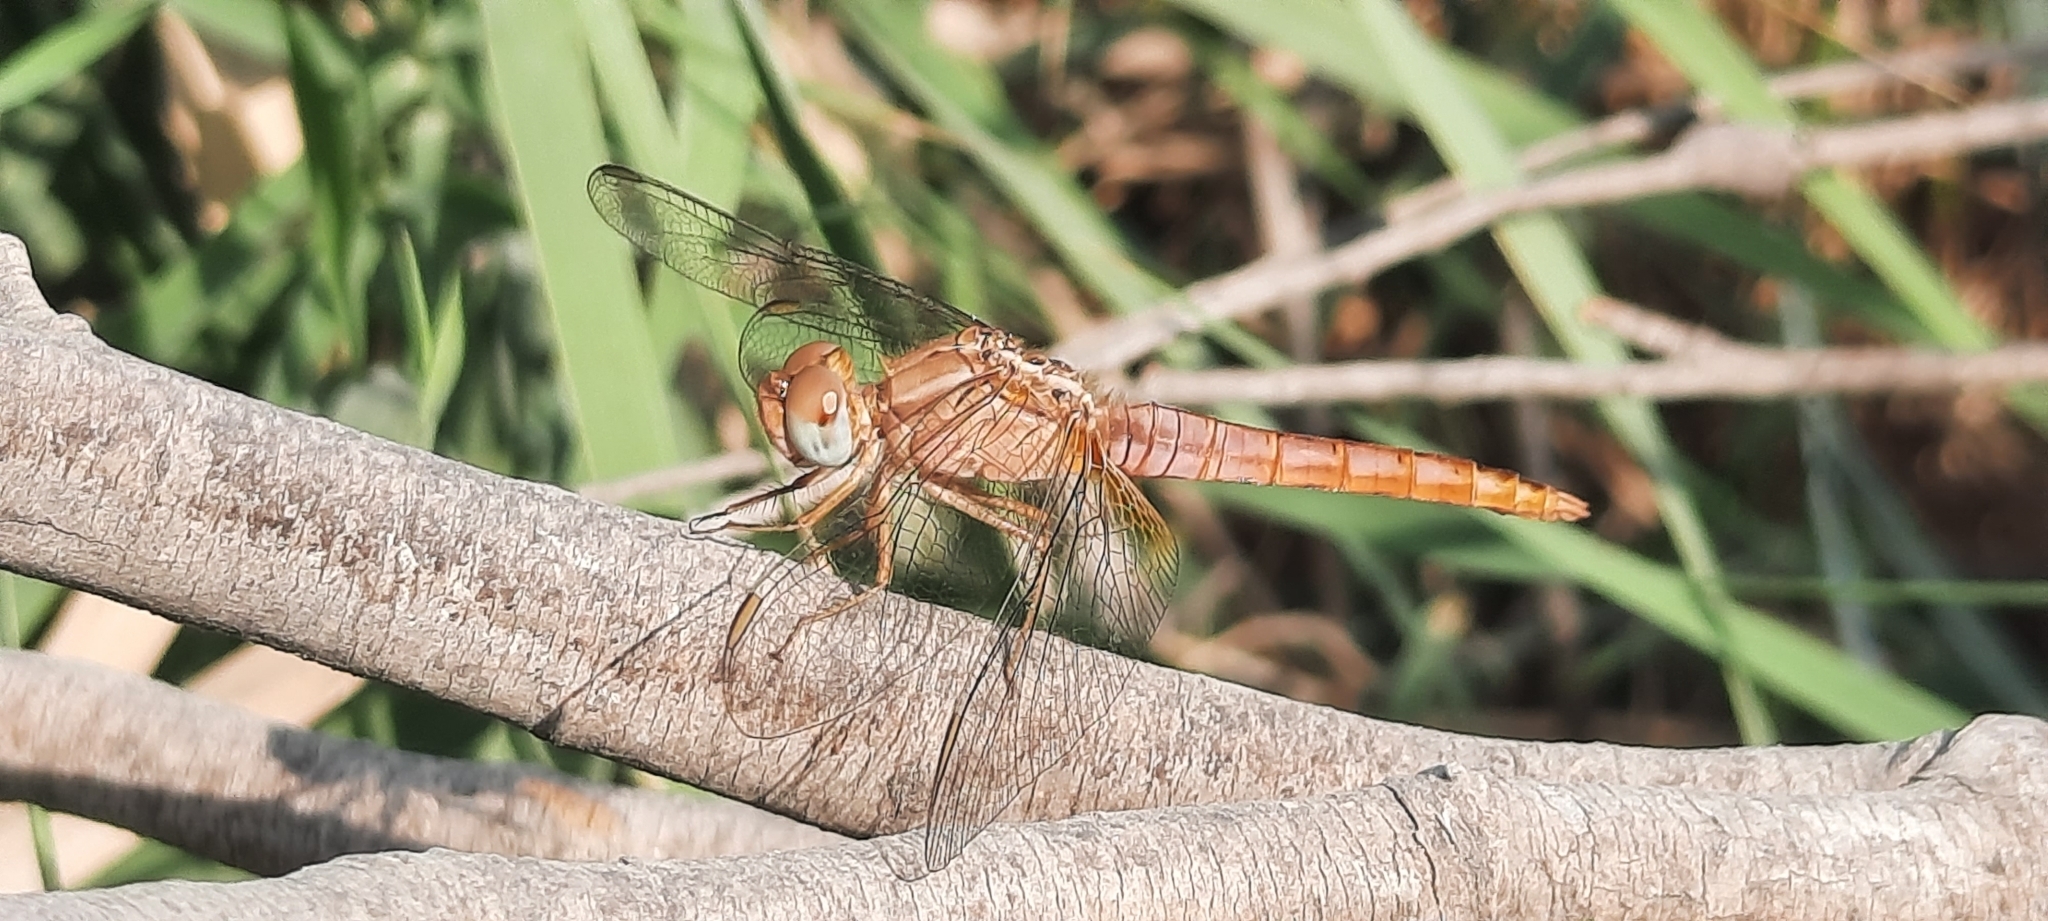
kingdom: Animalia
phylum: Arthropoda
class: Insecta
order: Odonata
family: Libellulidae
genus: Crocothemis
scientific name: Crocothemis erythraea
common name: Scarlet dragonfly
